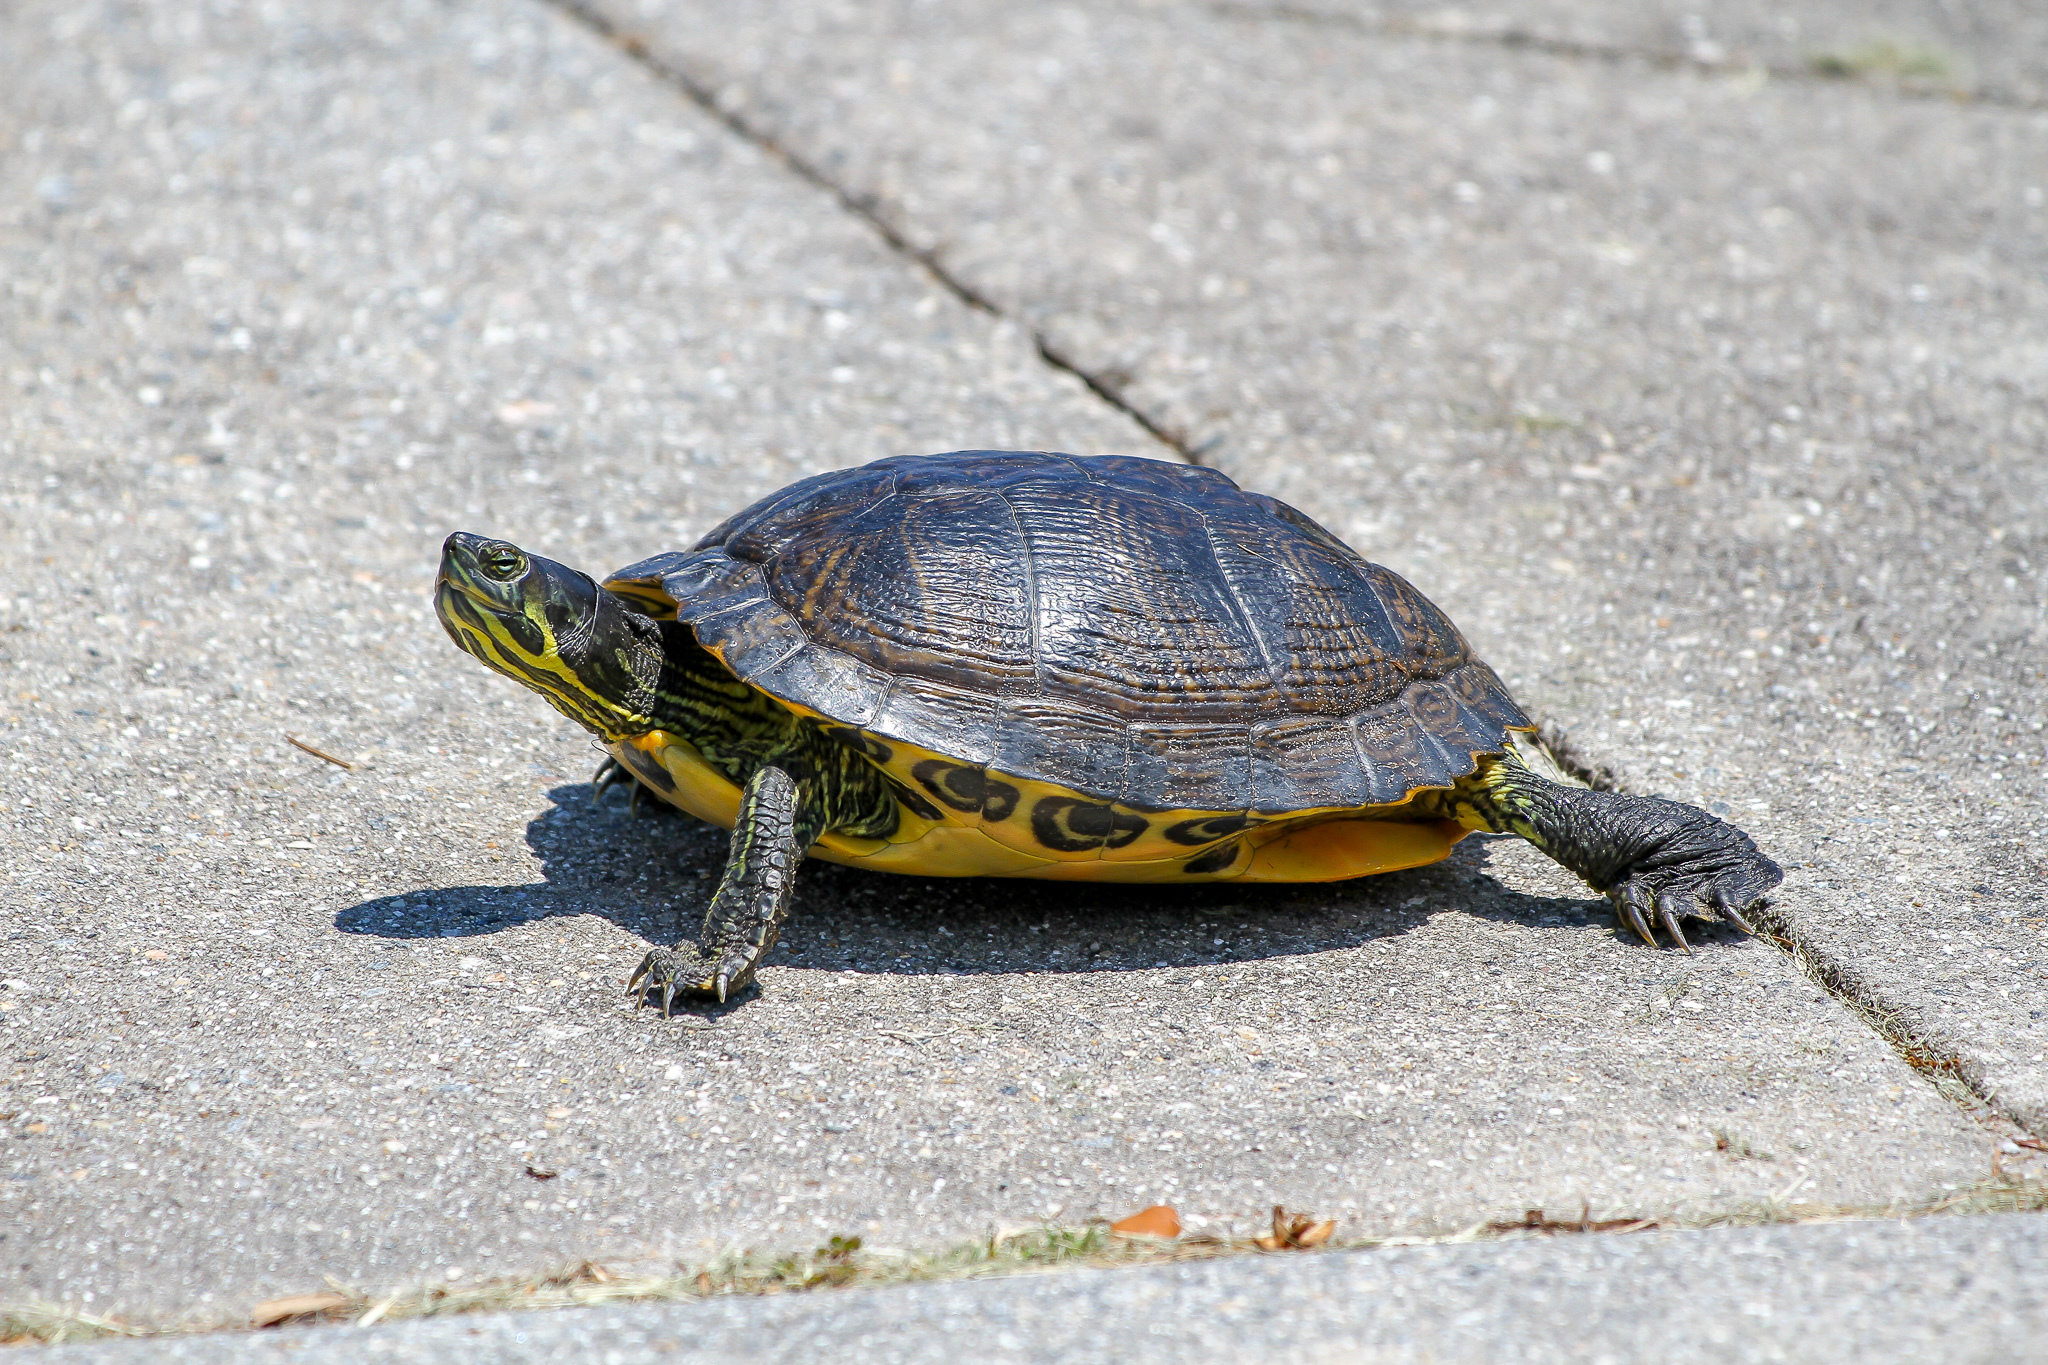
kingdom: Animalia
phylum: Chordata
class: Testudines
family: Emydidae
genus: Trachemys
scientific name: Trachemys scripta
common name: Slider
